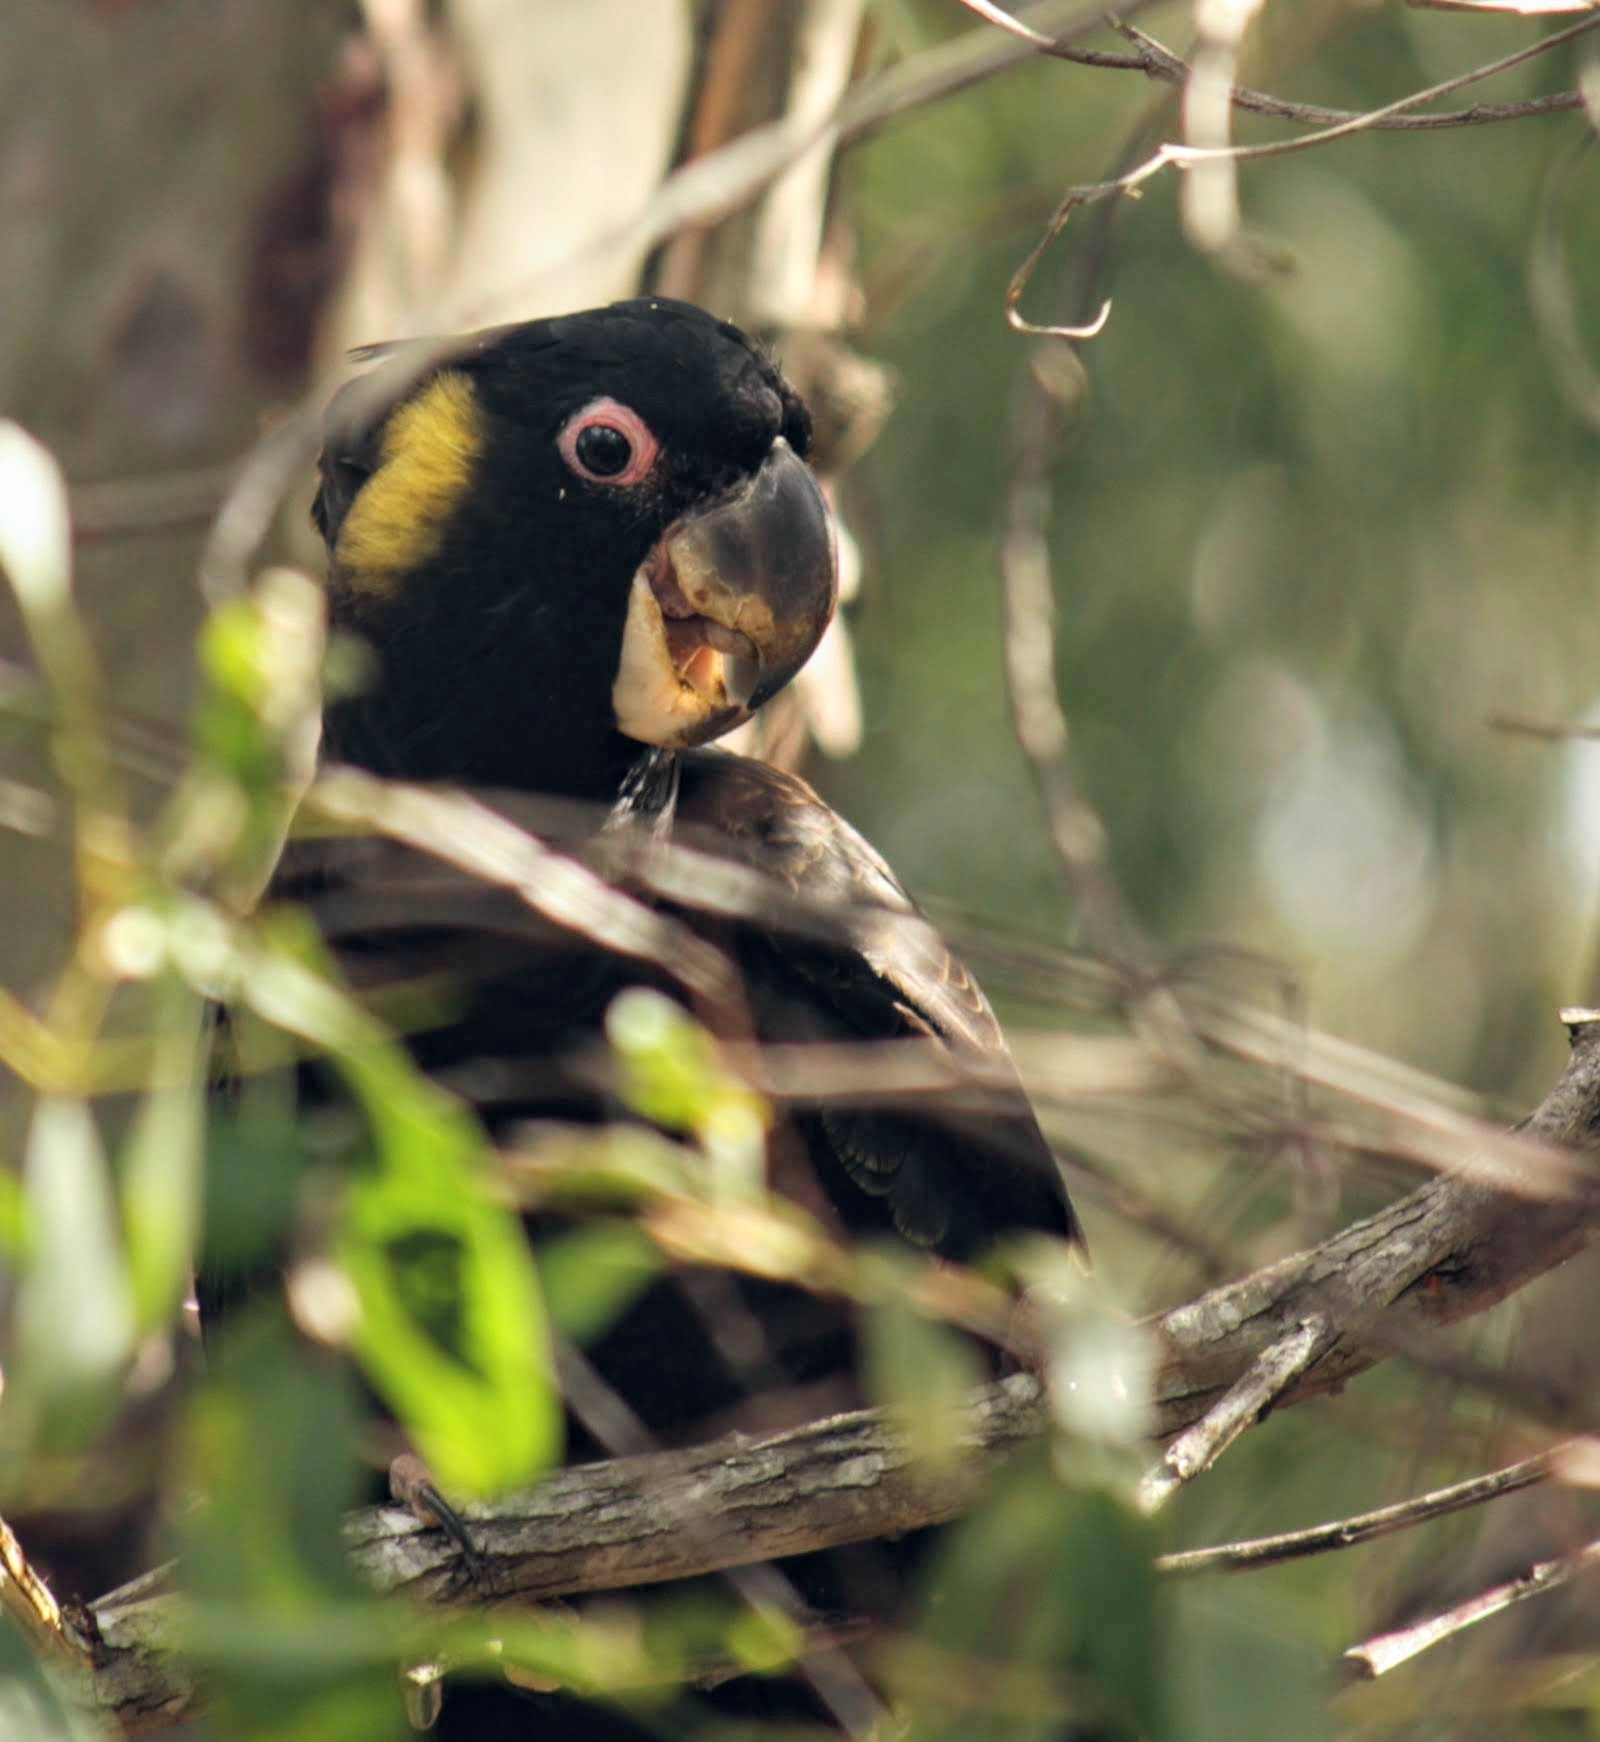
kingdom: Animalia
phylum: Chordata
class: Aves
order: Psittaciformes
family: Cacatuidae
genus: Zanda
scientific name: Zanda funerea
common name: Yellow-tailed black-cockatoo
